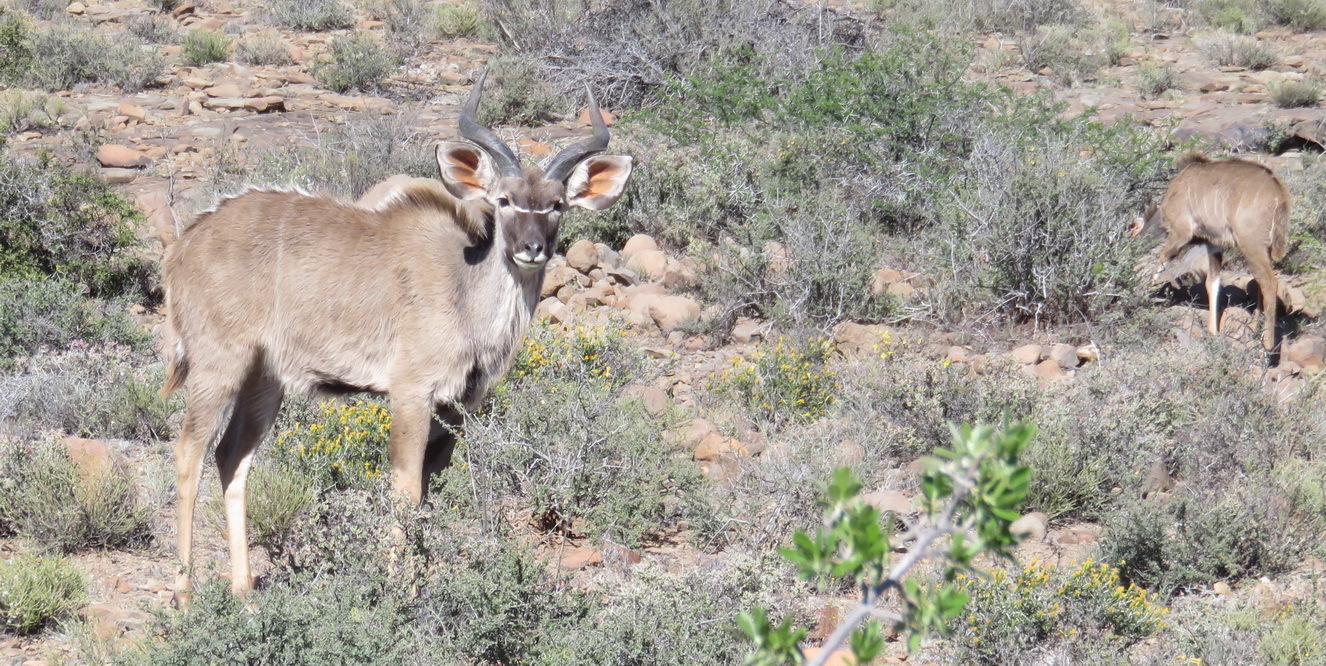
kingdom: Animalia
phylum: Chordata
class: Mammalia
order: Artiodactyla
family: Bovidae
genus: Tragelaphus
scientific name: Tragelaphus strepsiceros
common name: Greater kudu
